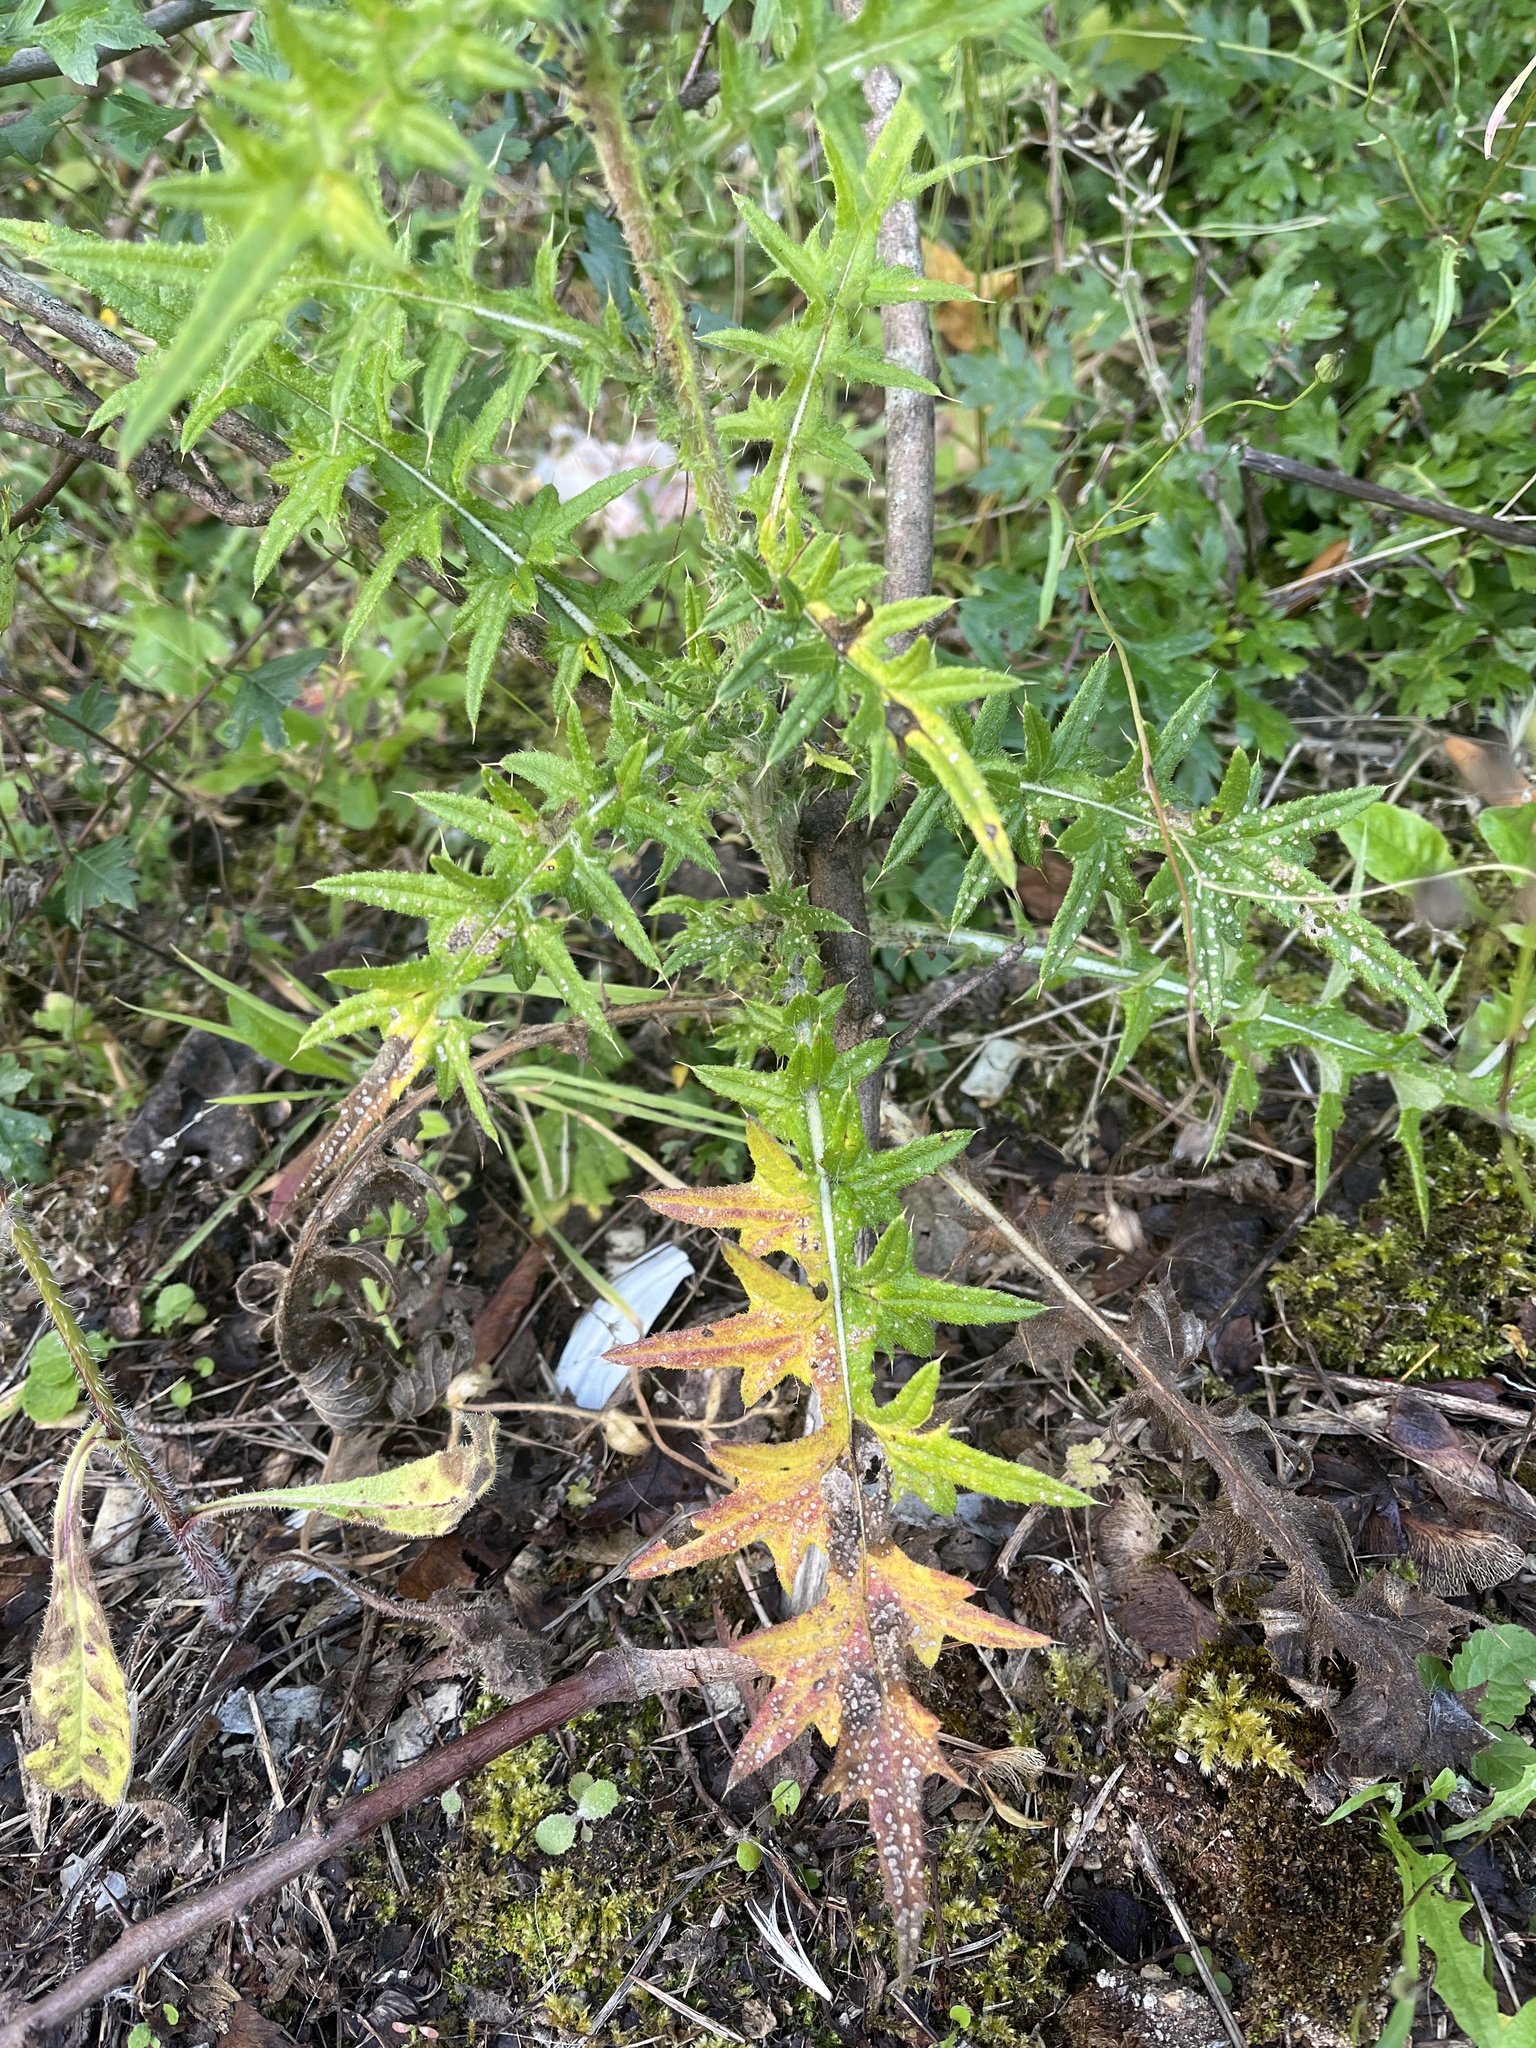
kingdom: Plantae
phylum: Tracheophyta
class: Magnoliopsida
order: Asterales
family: Asteraceae
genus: Cirsium
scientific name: Cirsium vulgare
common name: Bull thistle
